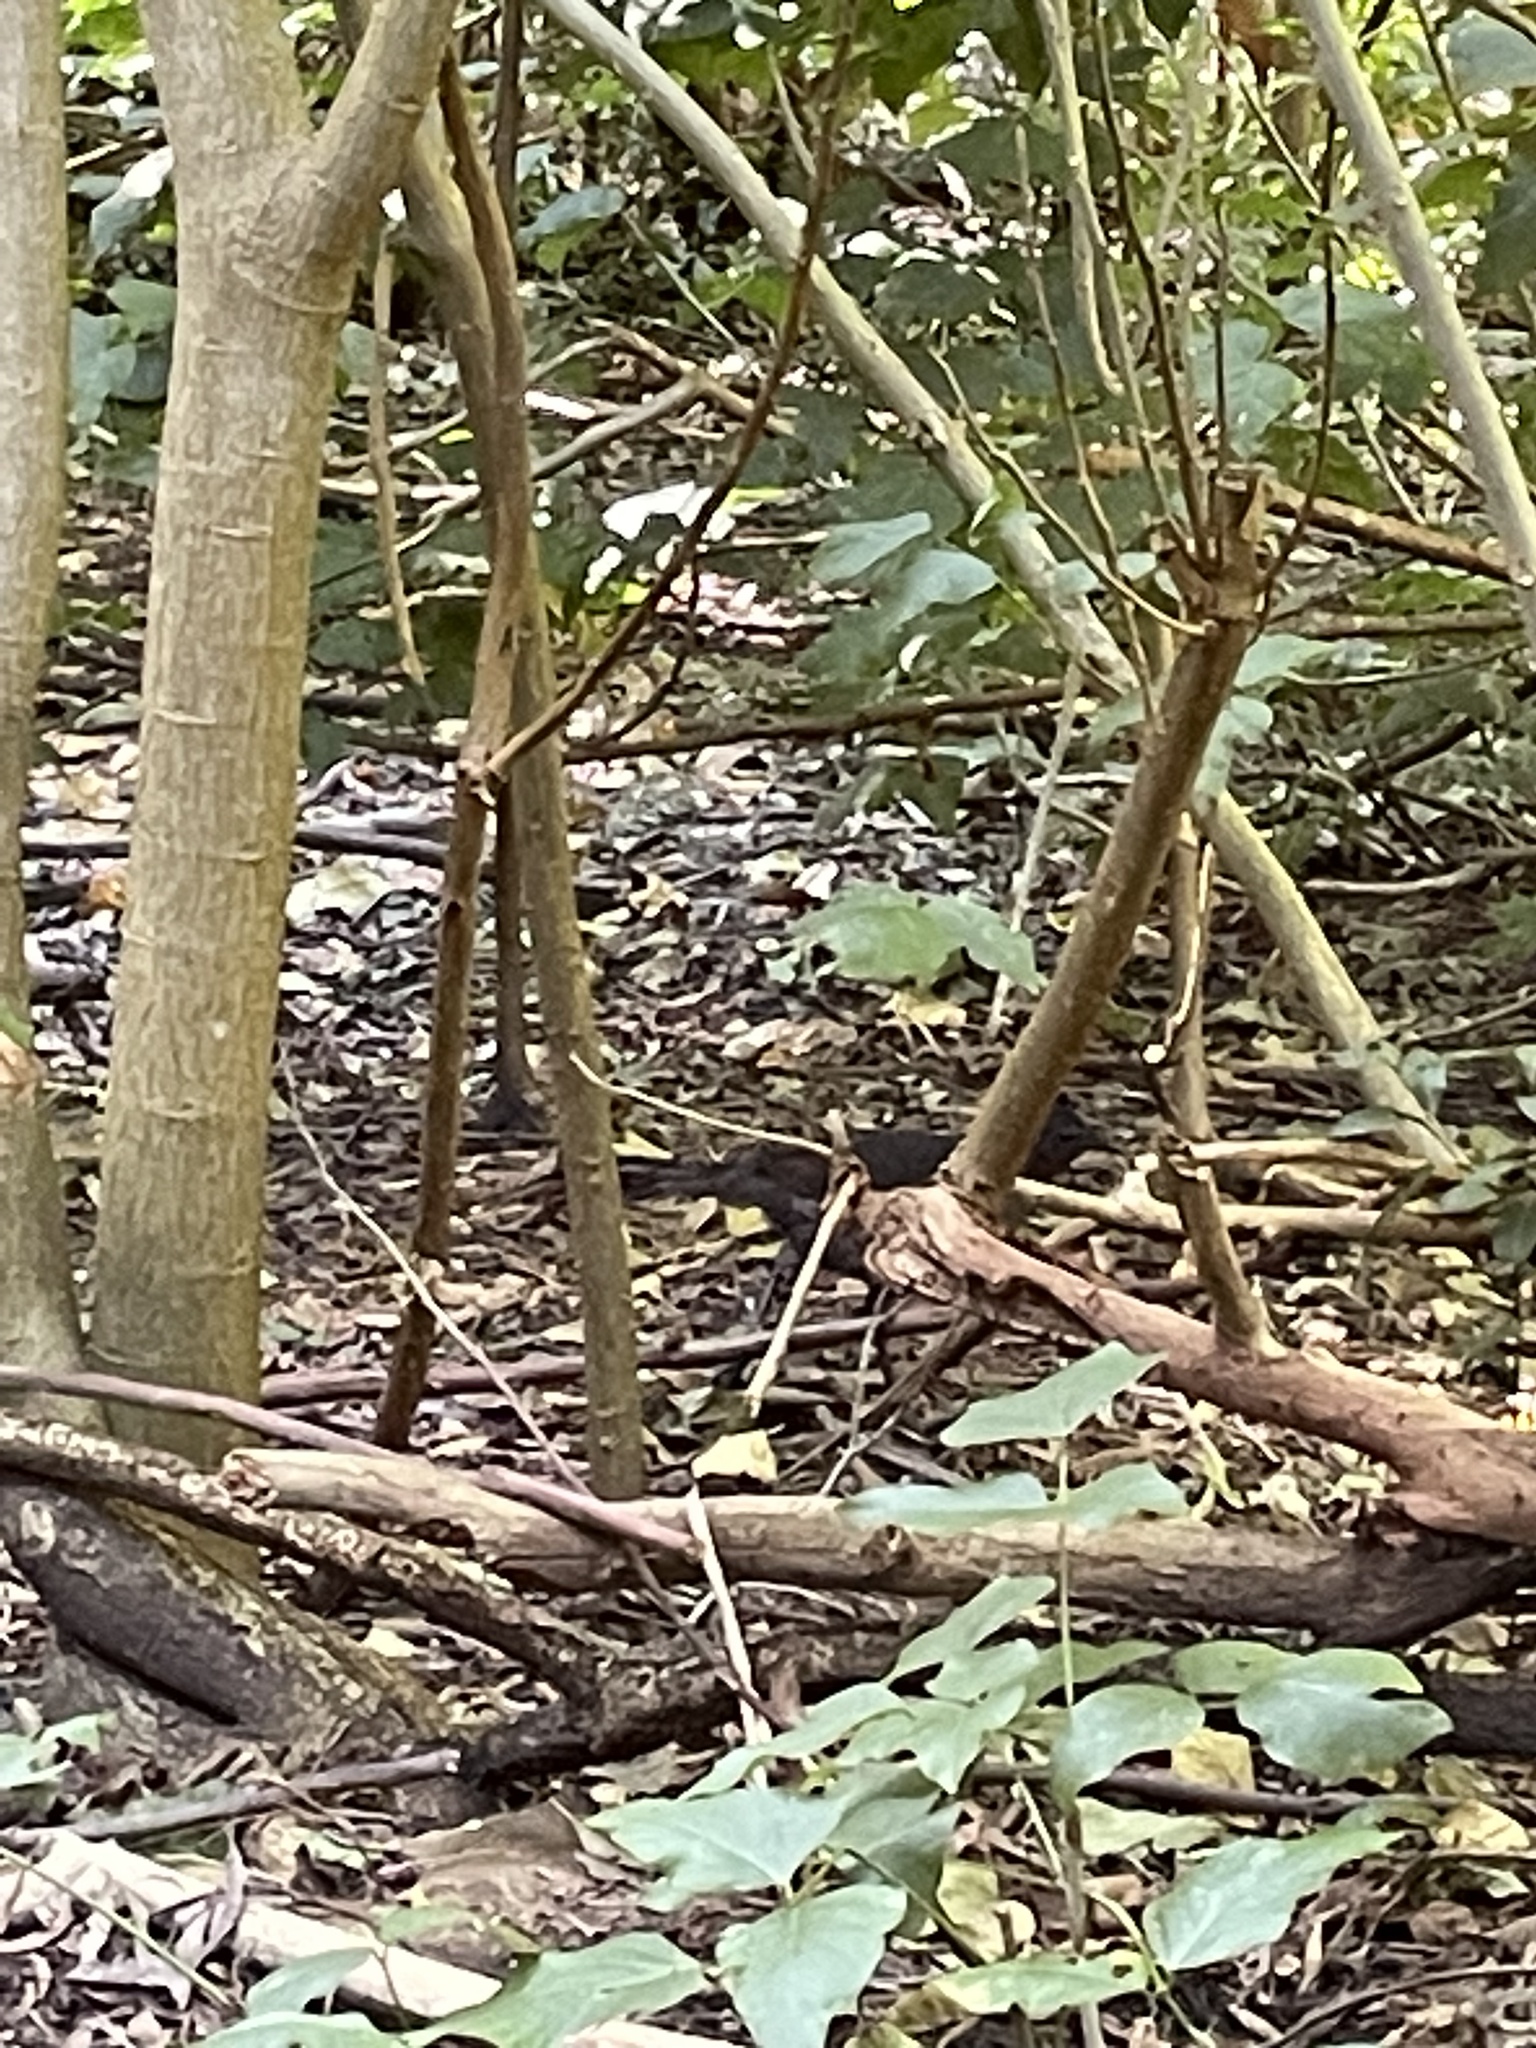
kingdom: Animalia
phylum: Chordata
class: Aves
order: Passeriformes
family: Menuridae
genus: Menura
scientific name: Menura novaehollandiae
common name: Superb lyrebird
